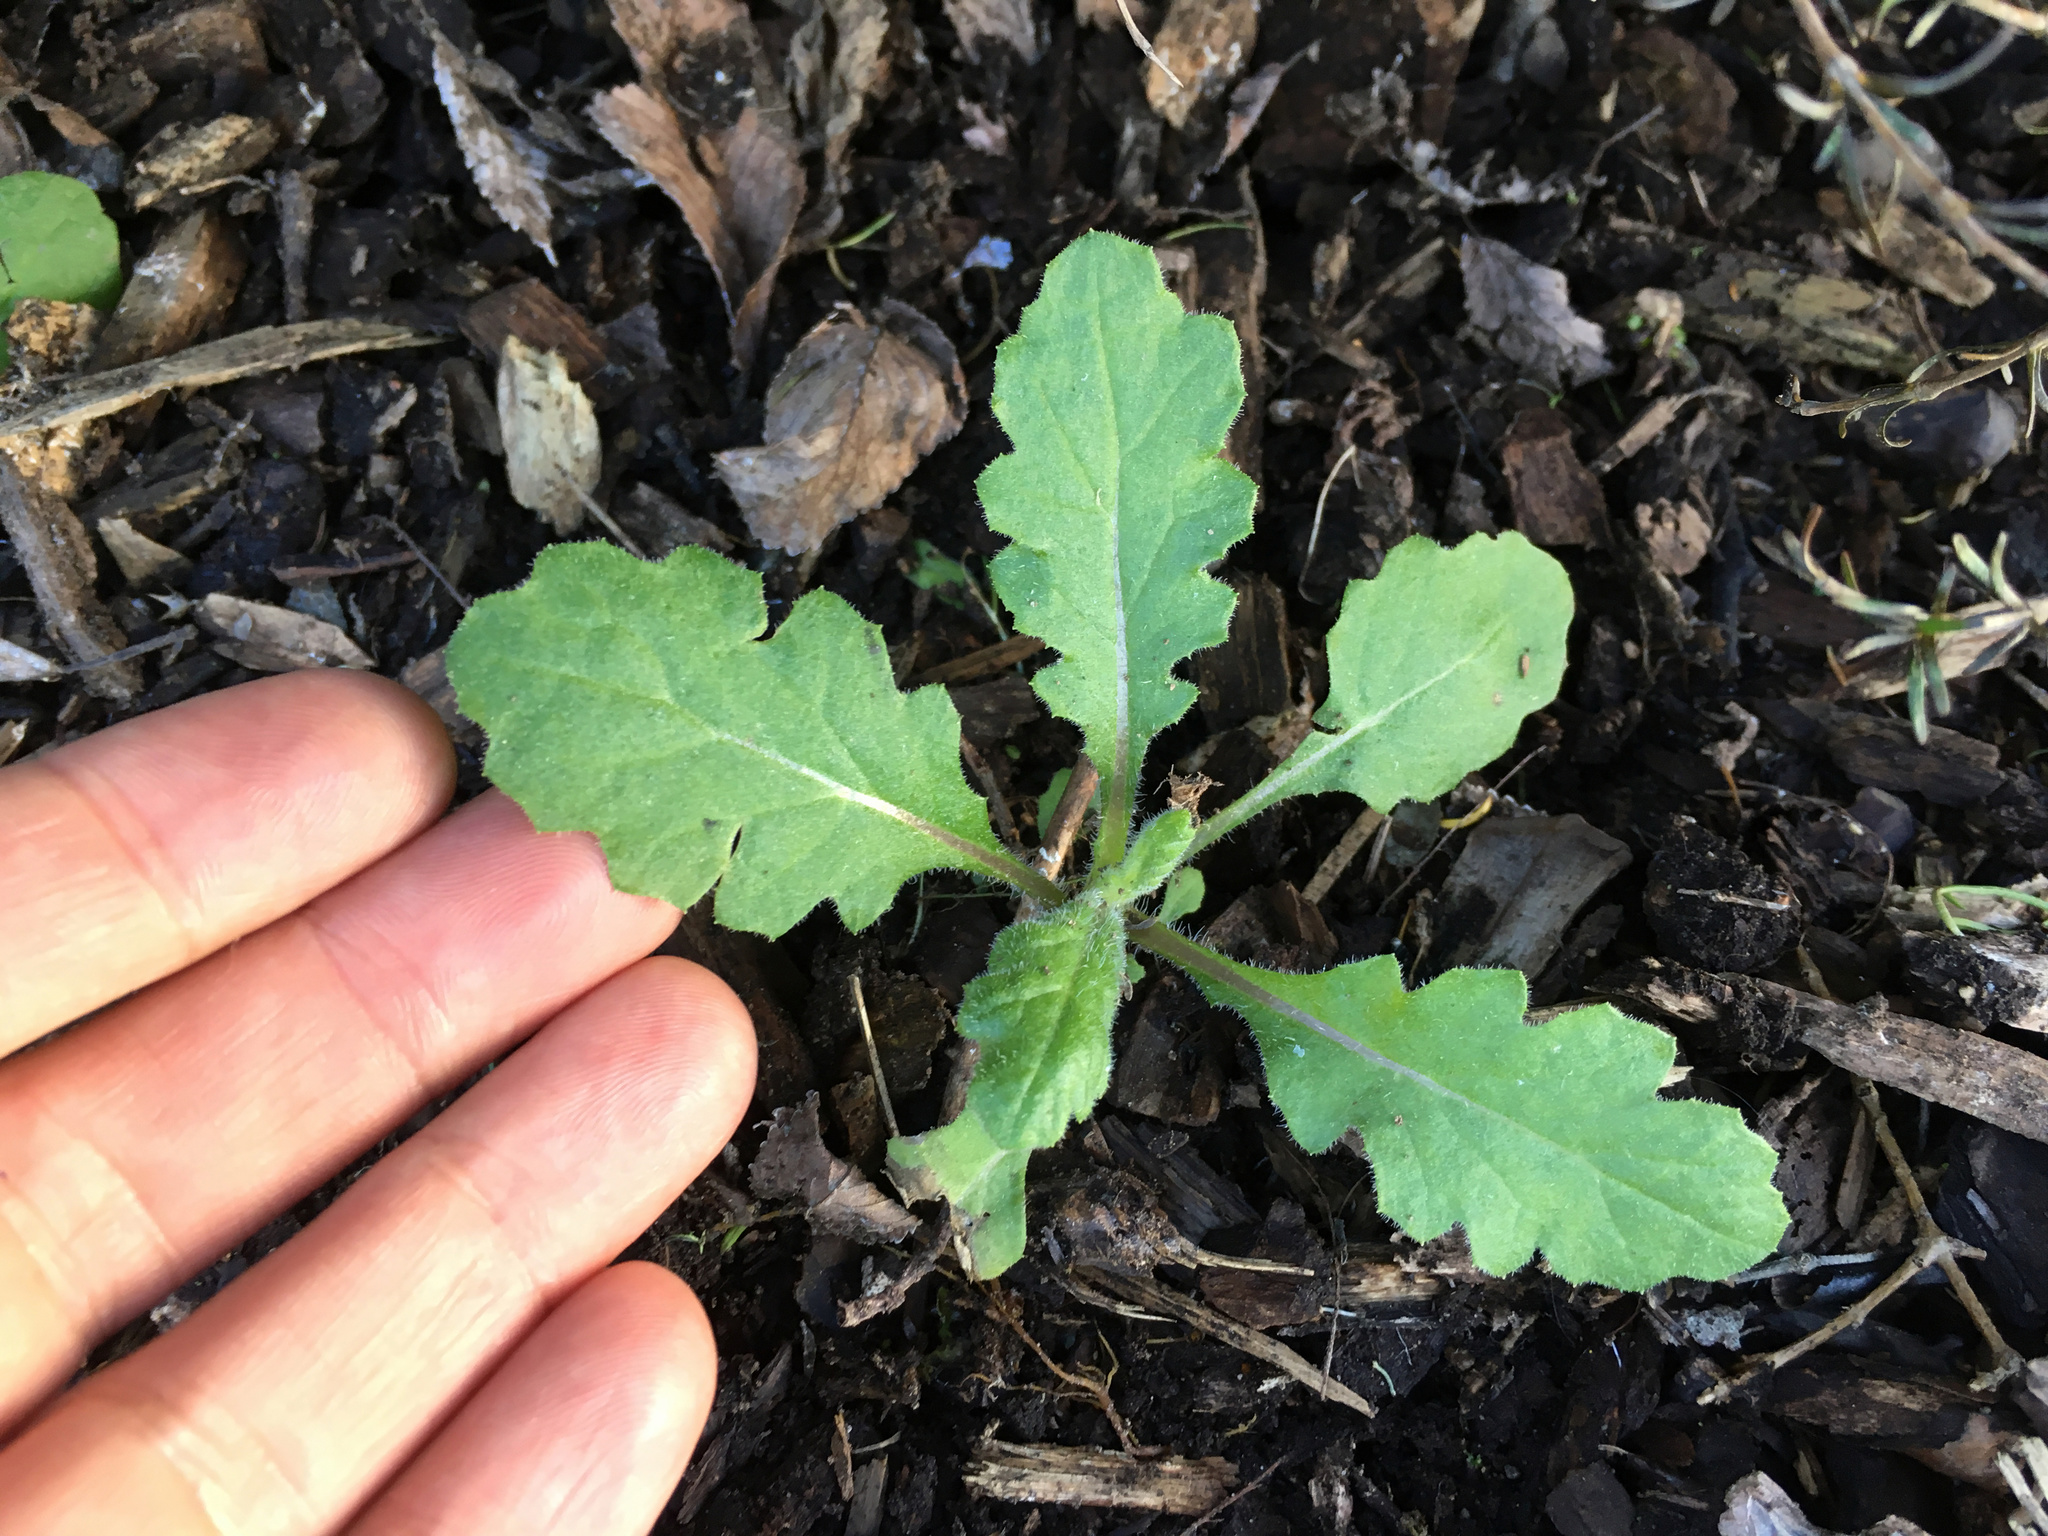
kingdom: Plantae
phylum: Tracheophyta
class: Magnoliopsida
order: Asterales
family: Asteraceae
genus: Senecio
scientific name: Senecio glomeratus
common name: Cutleaf burnweed
